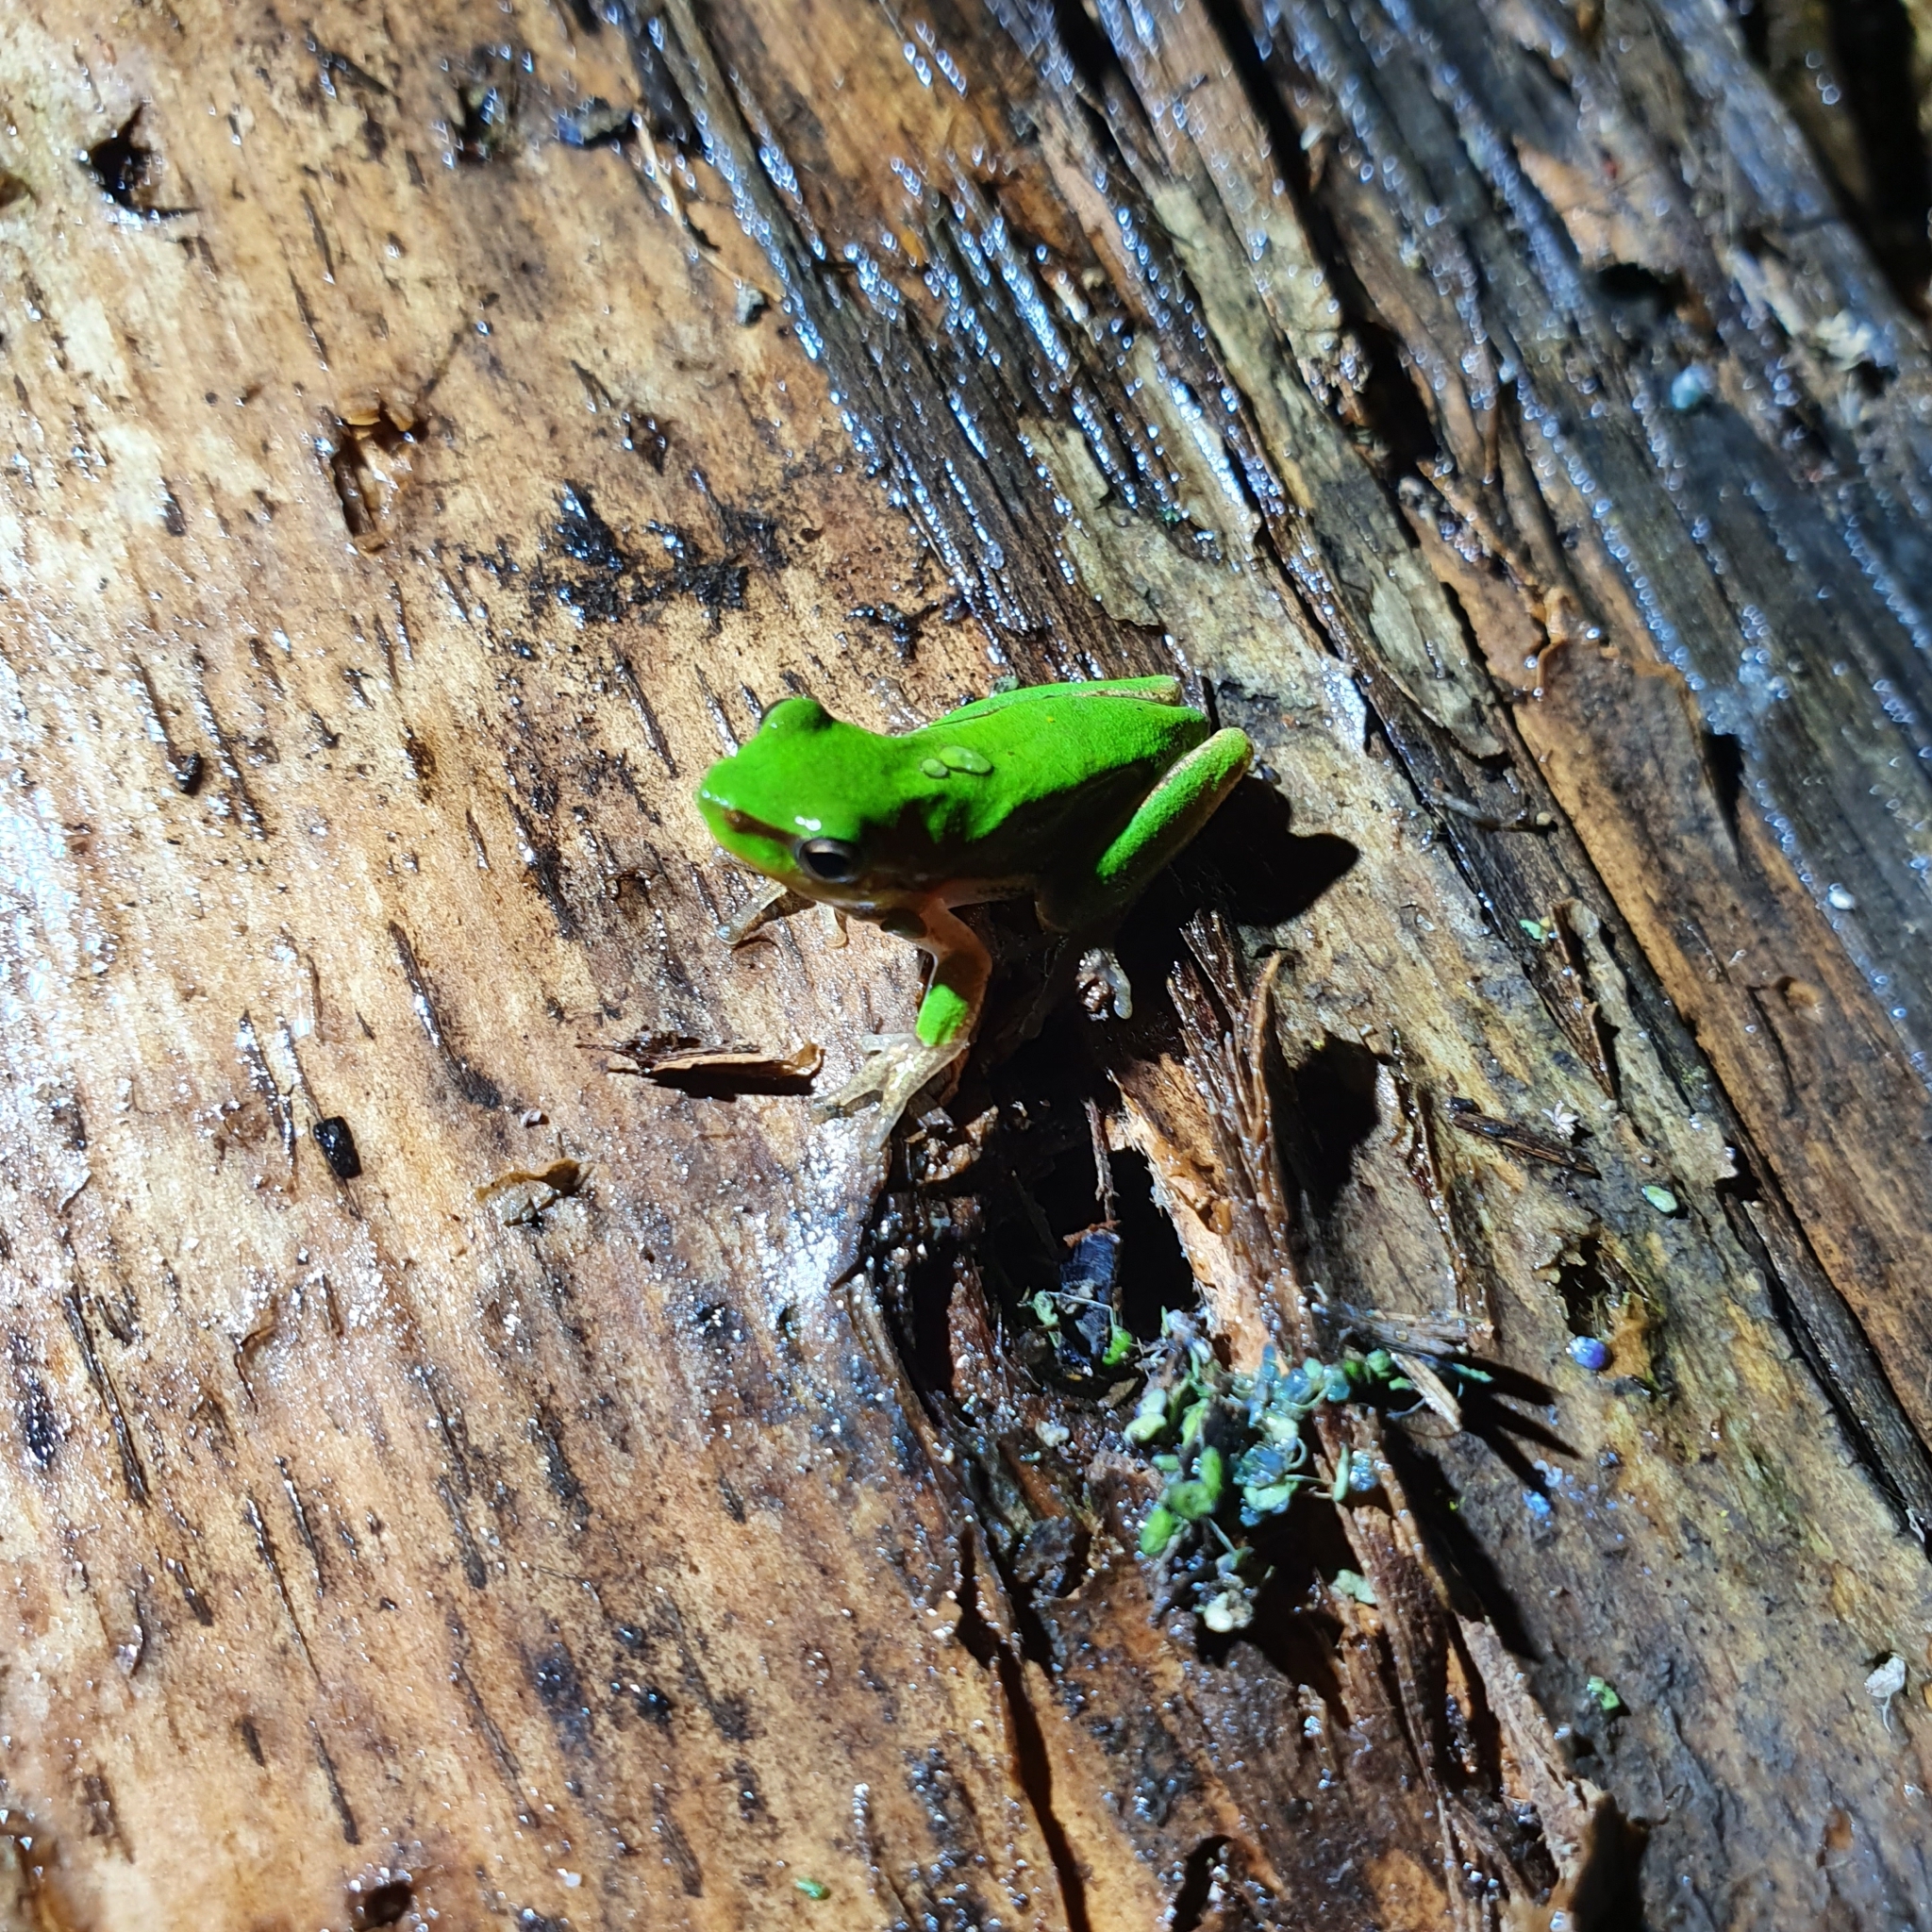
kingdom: Animalia
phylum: Chordata
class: Amphibia
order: Anura
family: Pelodryadidae
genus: Litoria
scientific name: Litoria fallax
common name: Eastern dwarf treefrog
